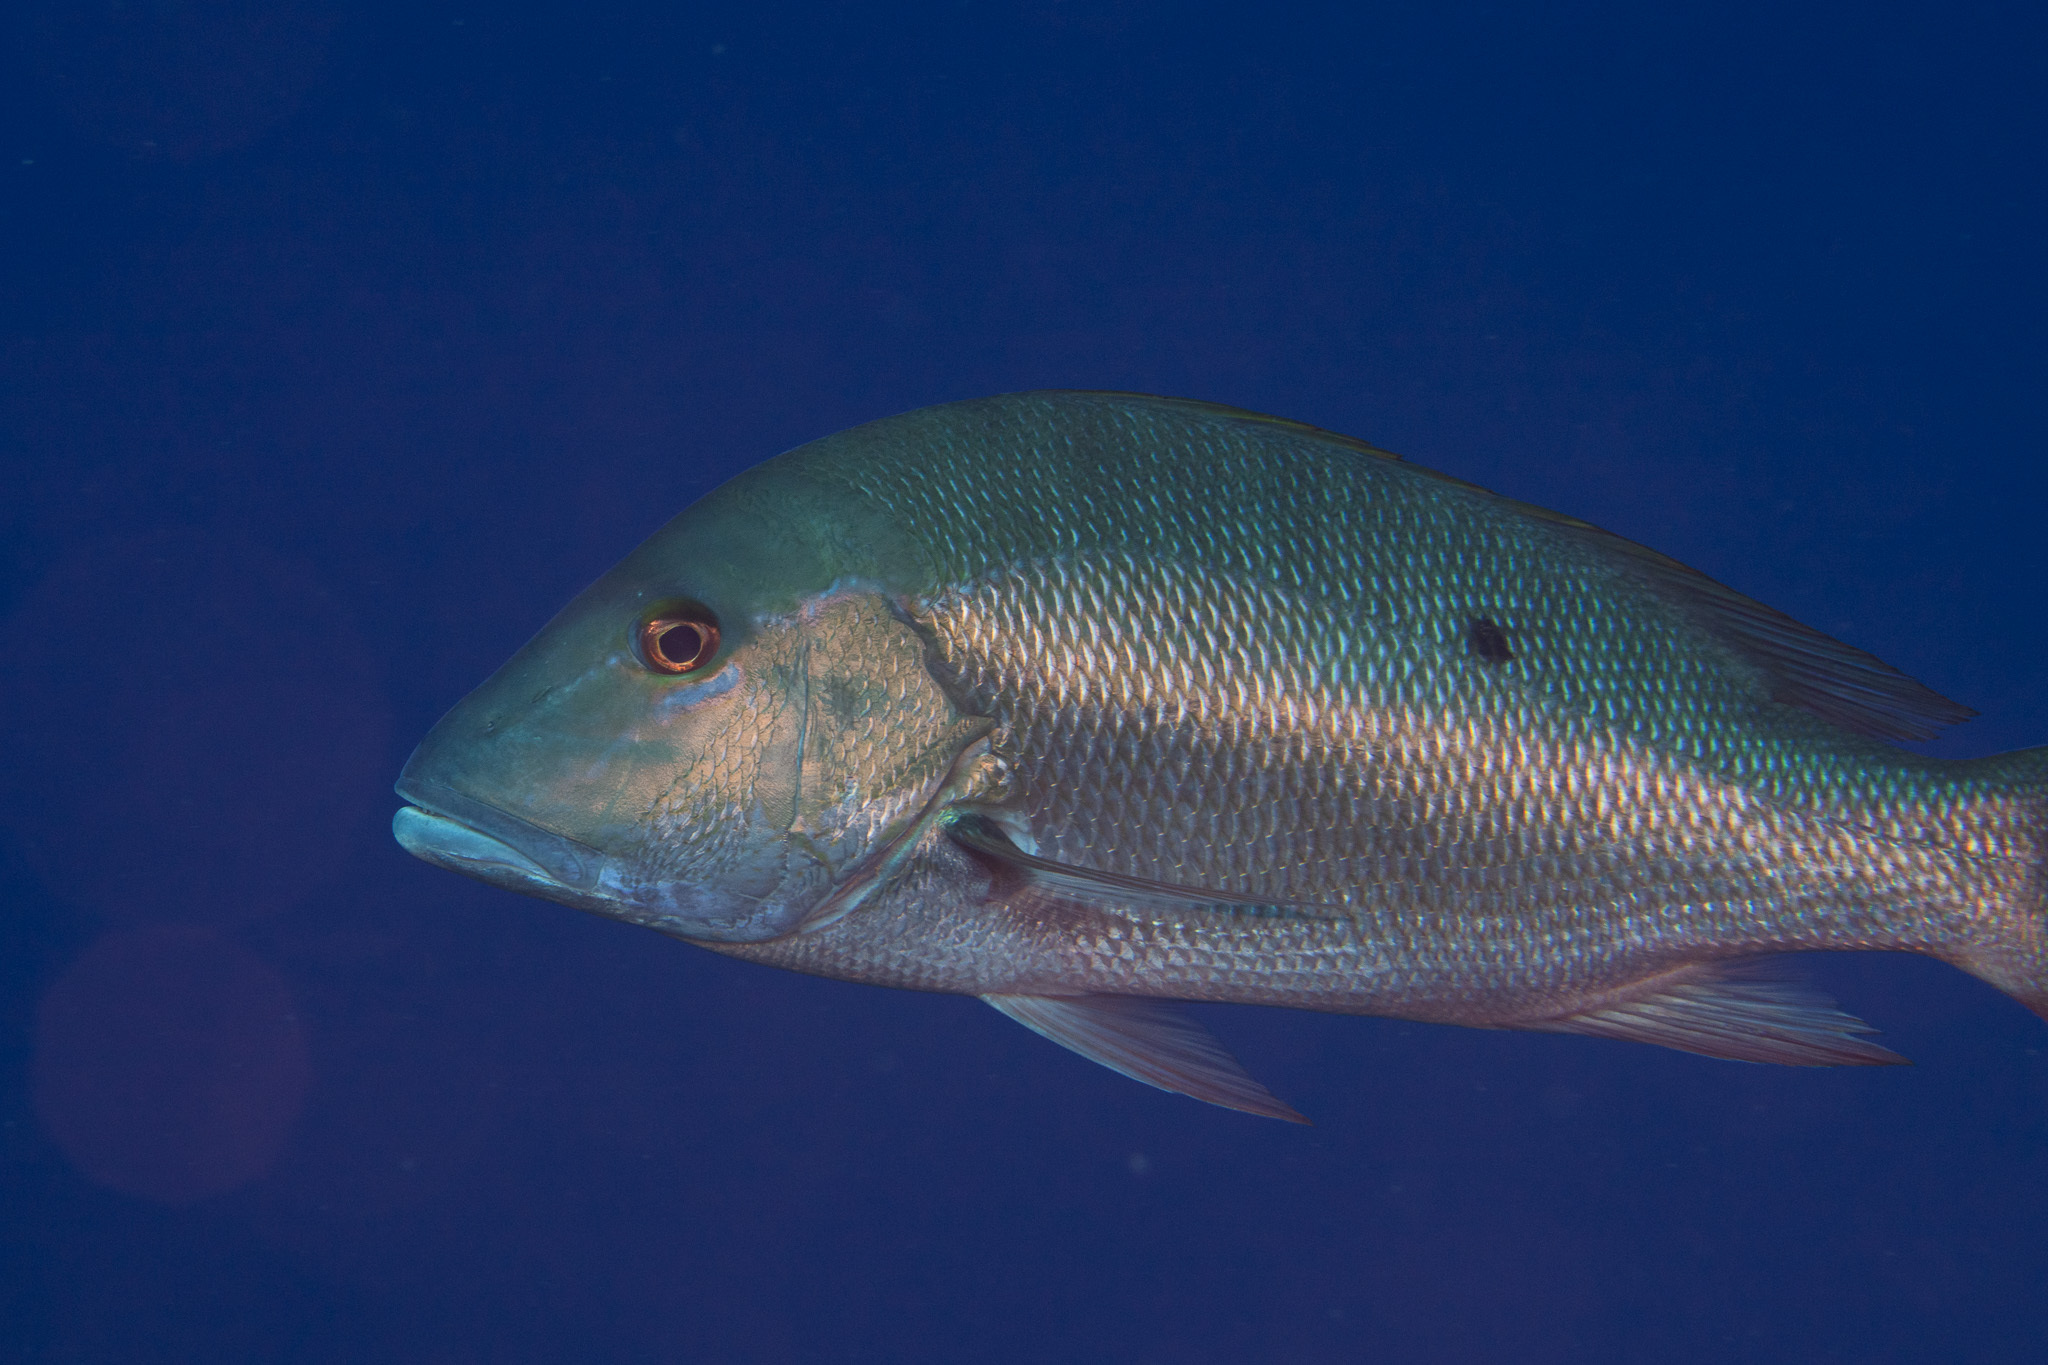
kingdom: Animalia
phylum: Chordata
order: Perciformes
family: Lutjanidae
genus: Lutjanus
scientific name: Lutjanus analis
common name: Mutton snapper
